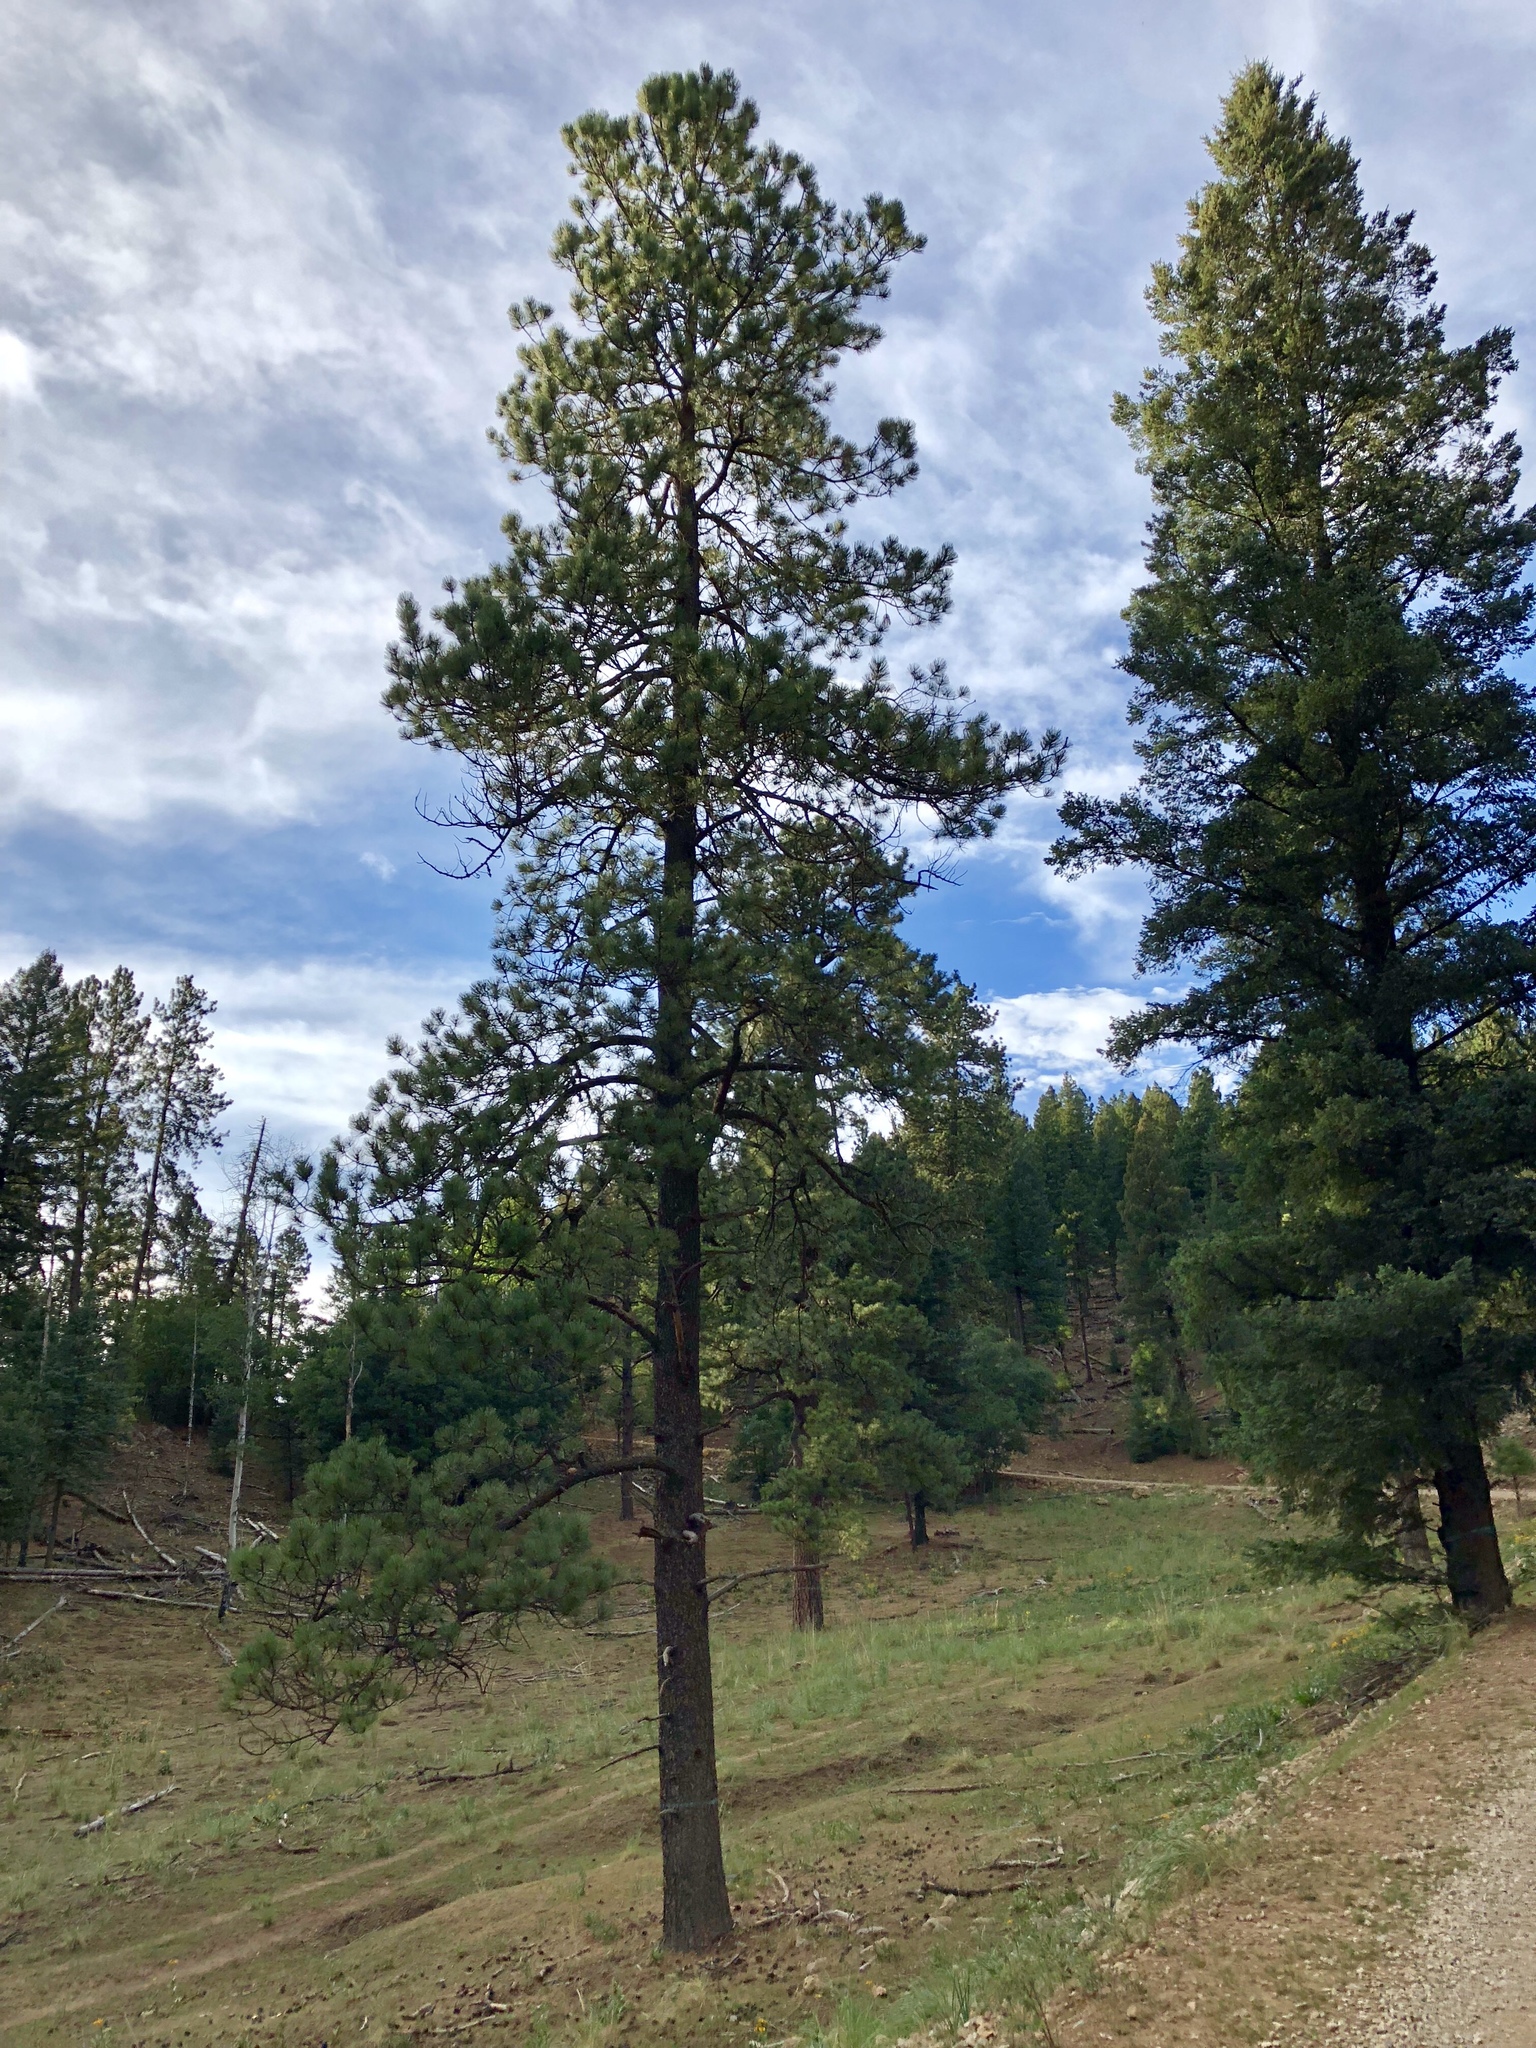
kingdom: Plantae
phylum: Tracheophyta
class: Pinopsida
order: Pinales
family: Pinaceae
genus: Pinus
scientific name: Pinus ponderosa
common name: Western yellow-pine
